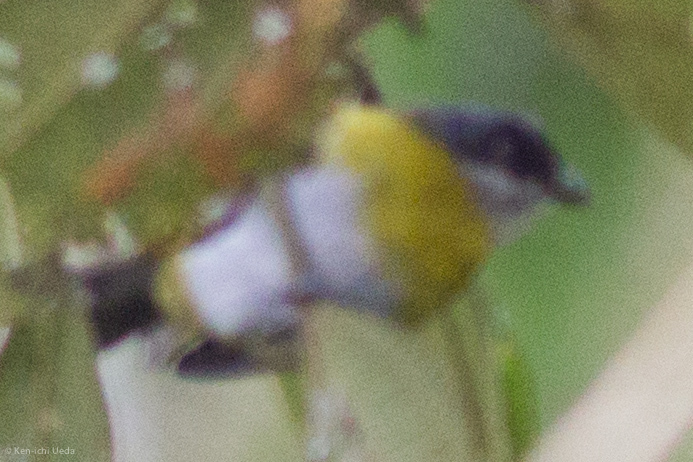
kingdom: Animalia
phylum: Chordata
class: Aves
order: Passeriformes
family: Passerellidae
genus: Chlorospingus
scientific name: Chlorospingus canigularis
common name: Ashy-throated bush-tanager
